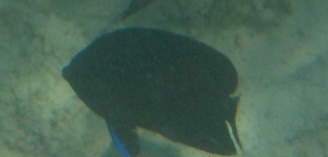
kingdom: Animalia
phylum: Chordata
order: Perciformes
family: Pomacanthidae
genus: Centropyge
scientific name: Centropyge multispinis
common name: Many-spined angelfish
